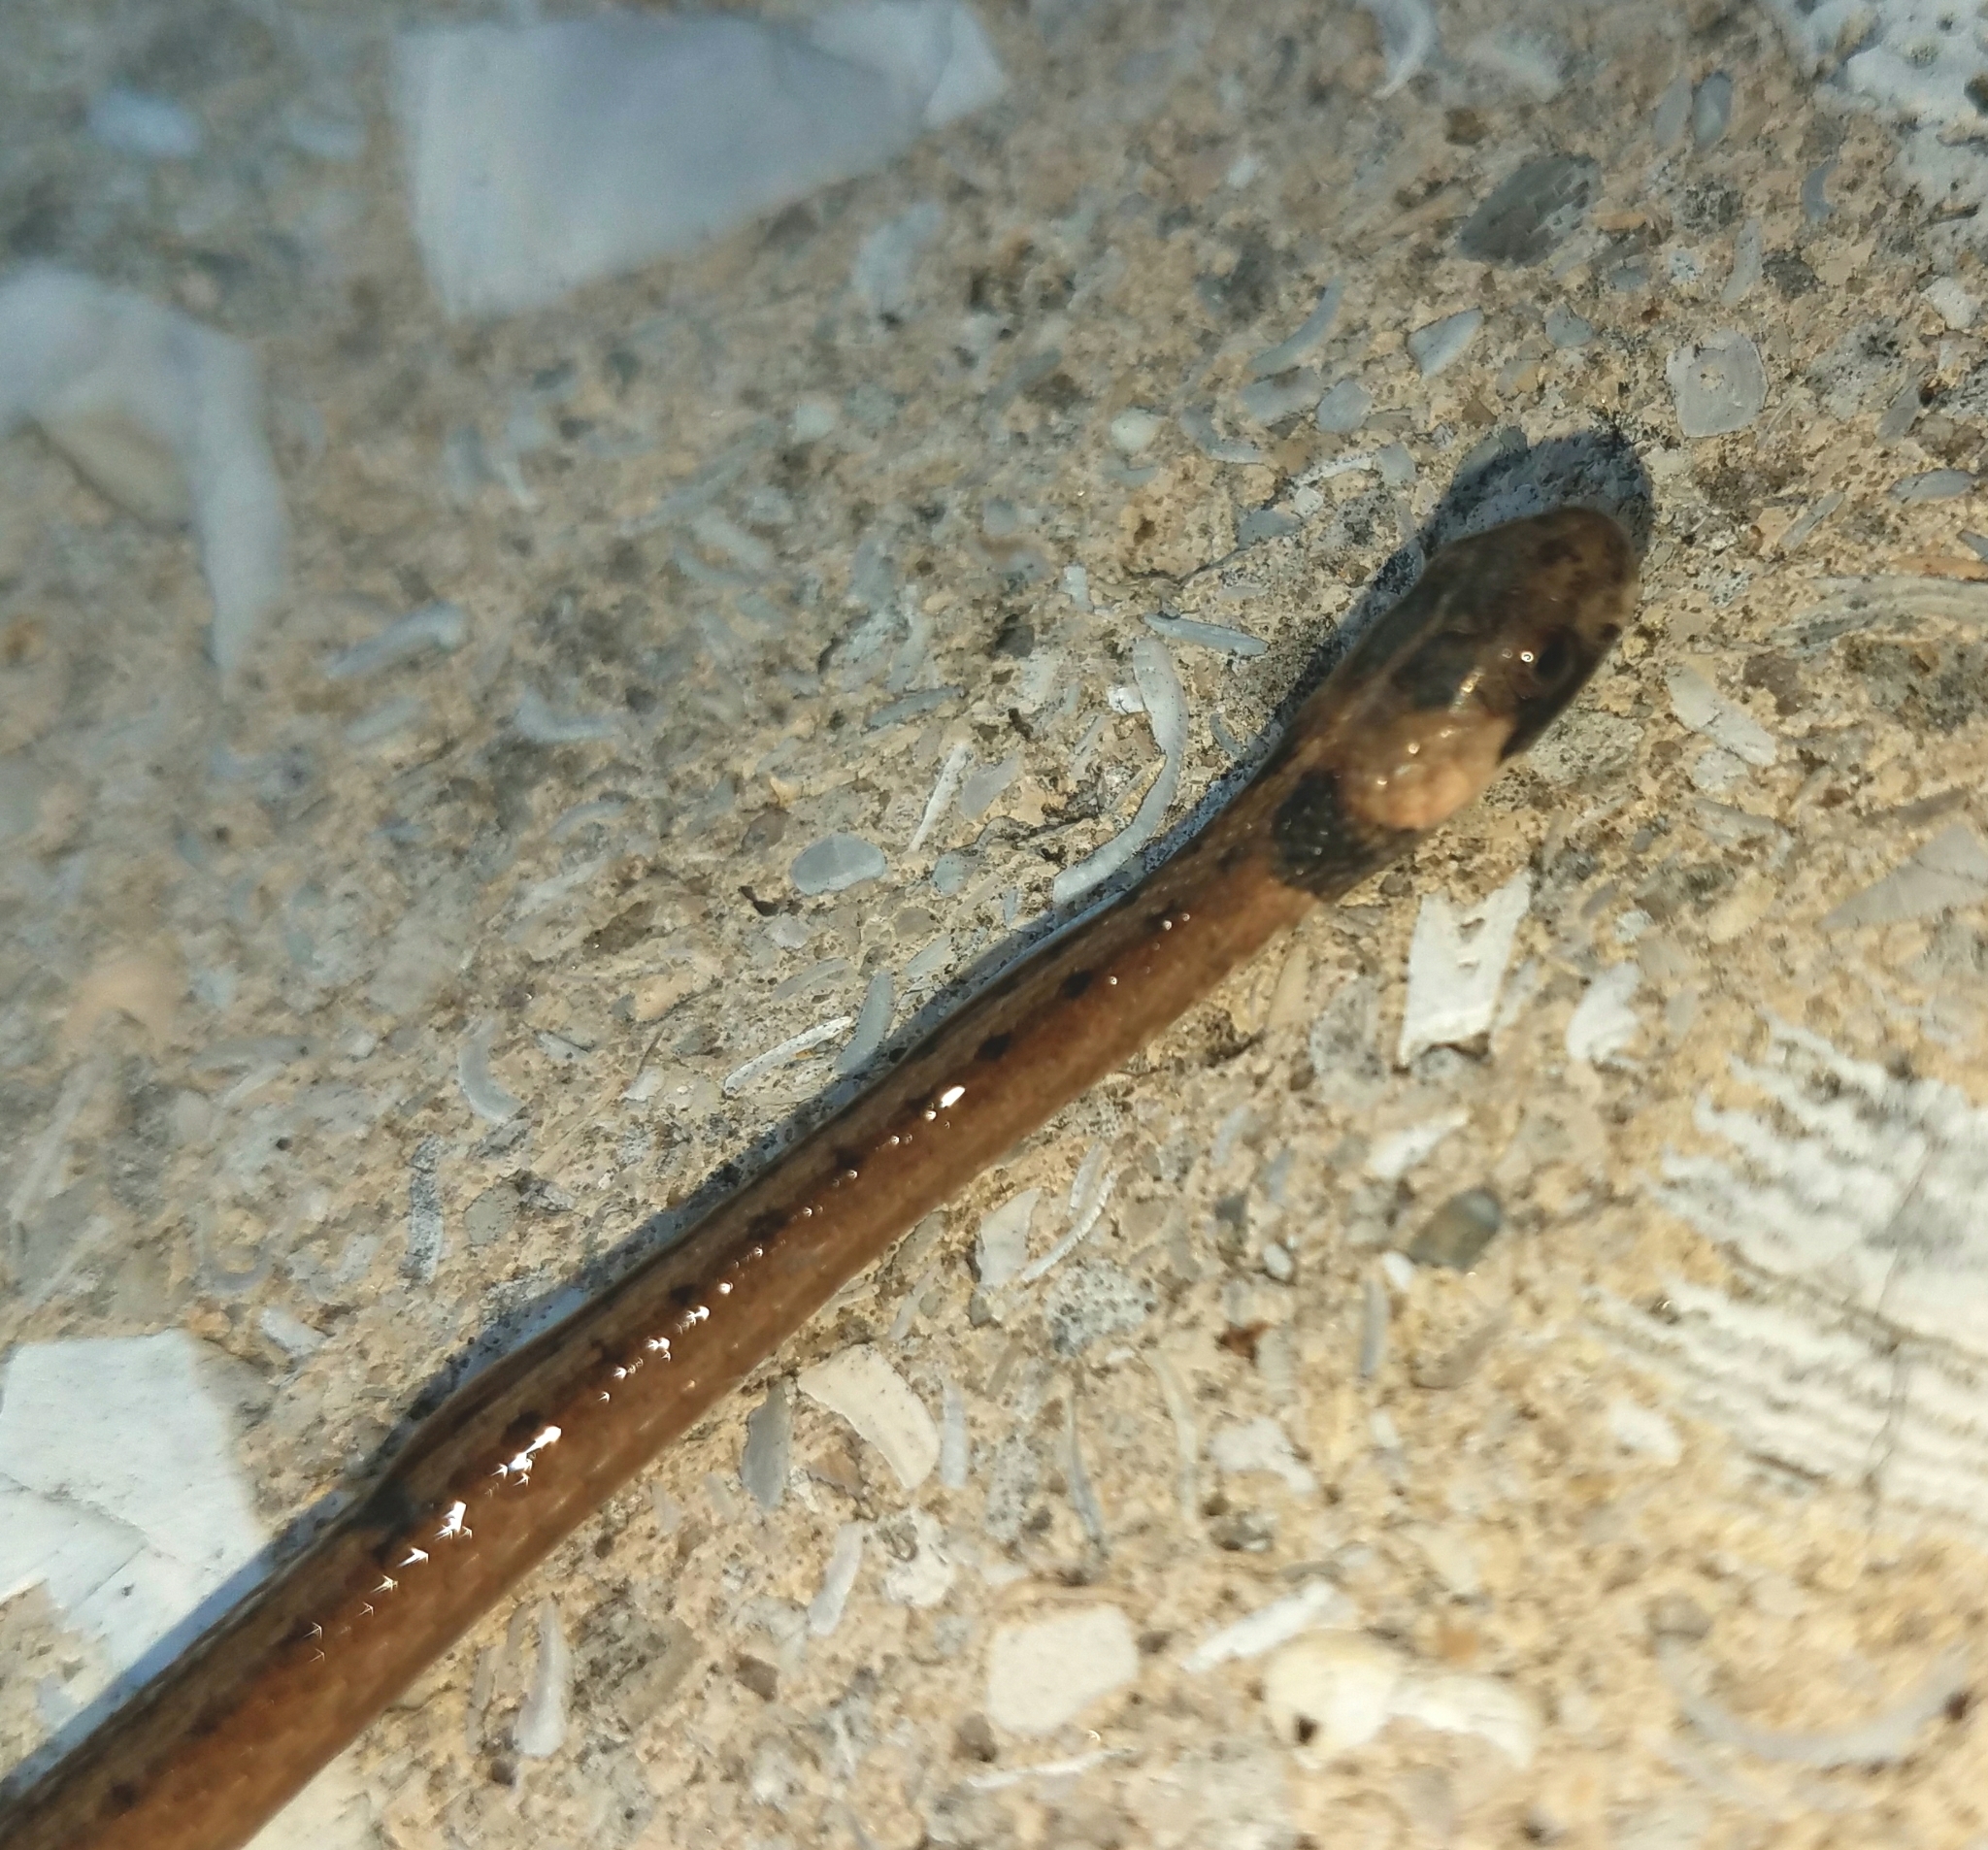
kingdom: Animalia
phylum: Chordata
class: Squamata
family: Colubridae
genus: Storeria
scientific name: Storeria victa
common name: Florida brown snake
